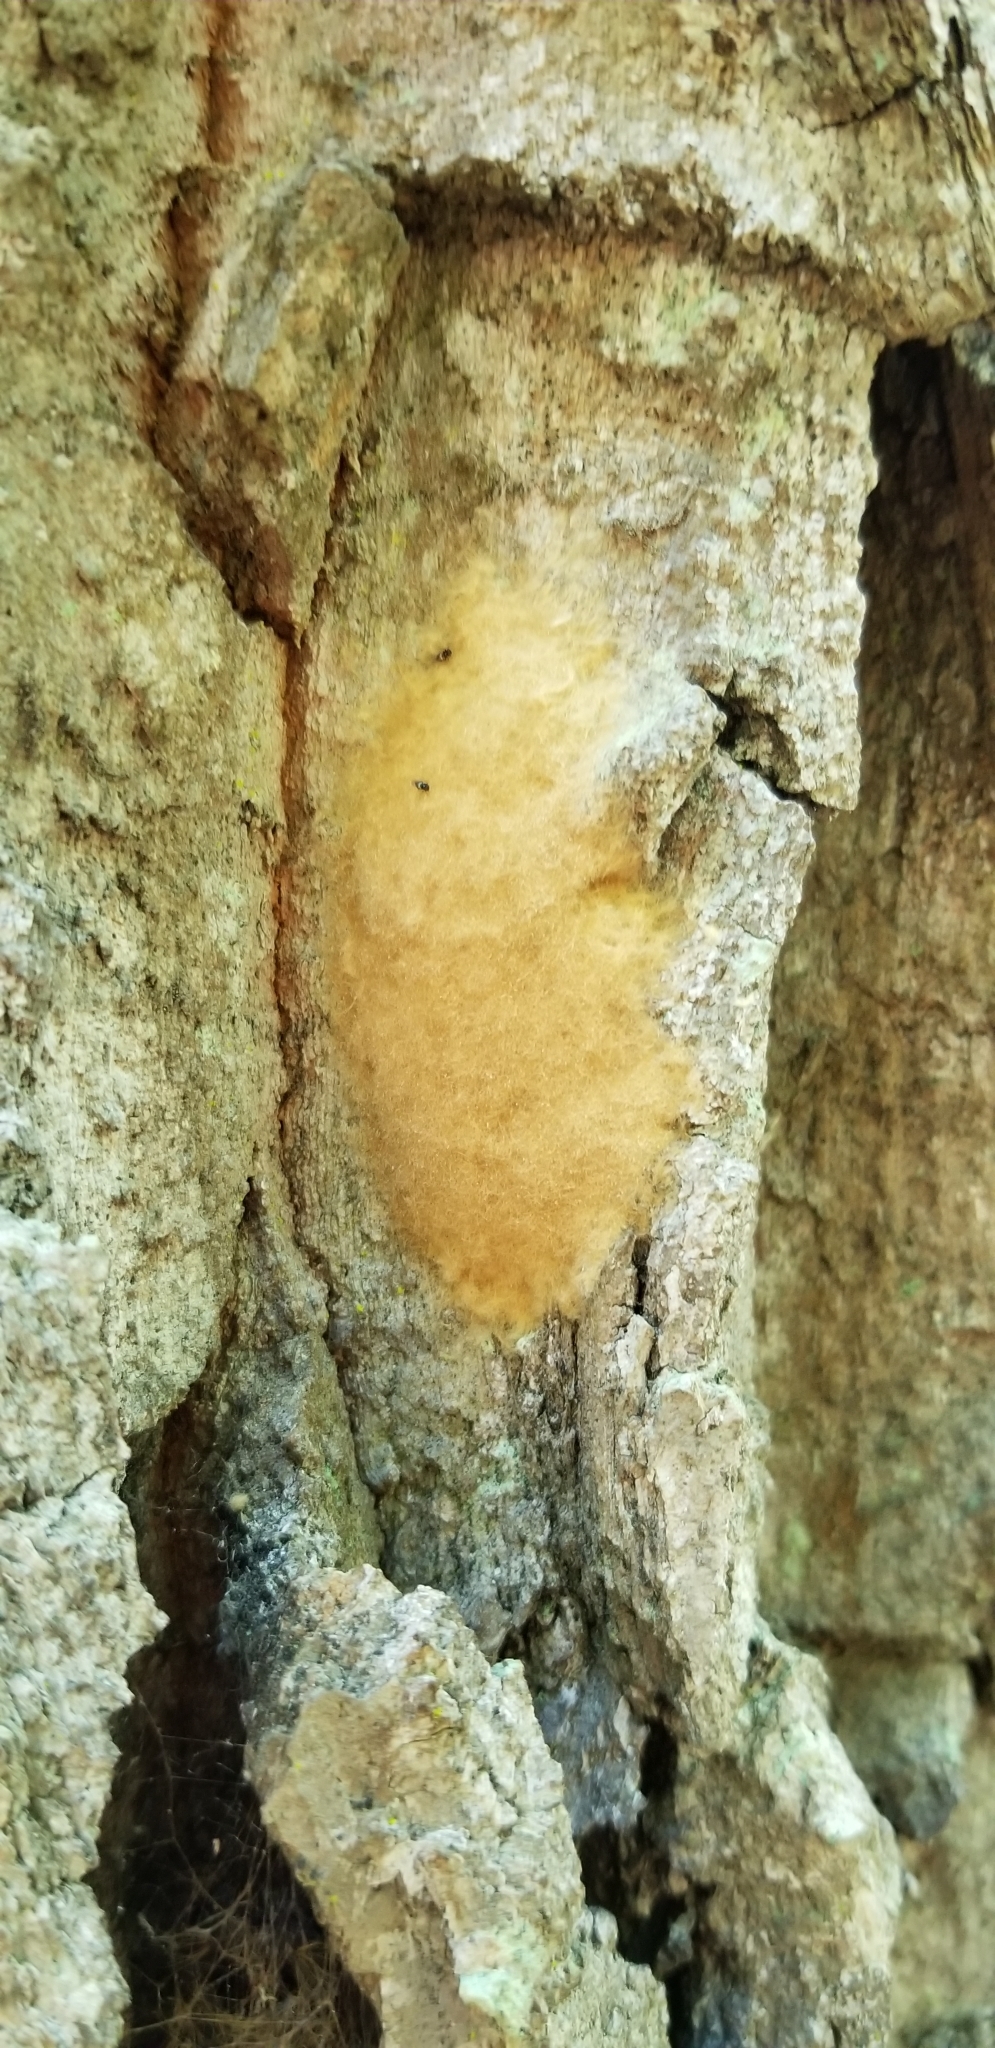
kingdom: Animalia
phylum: Arthropoda
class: Insecta
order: Lepidoptera
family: Erebidae
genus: Lymantria
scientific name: Lymantria dispar
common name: Gypsy moth
